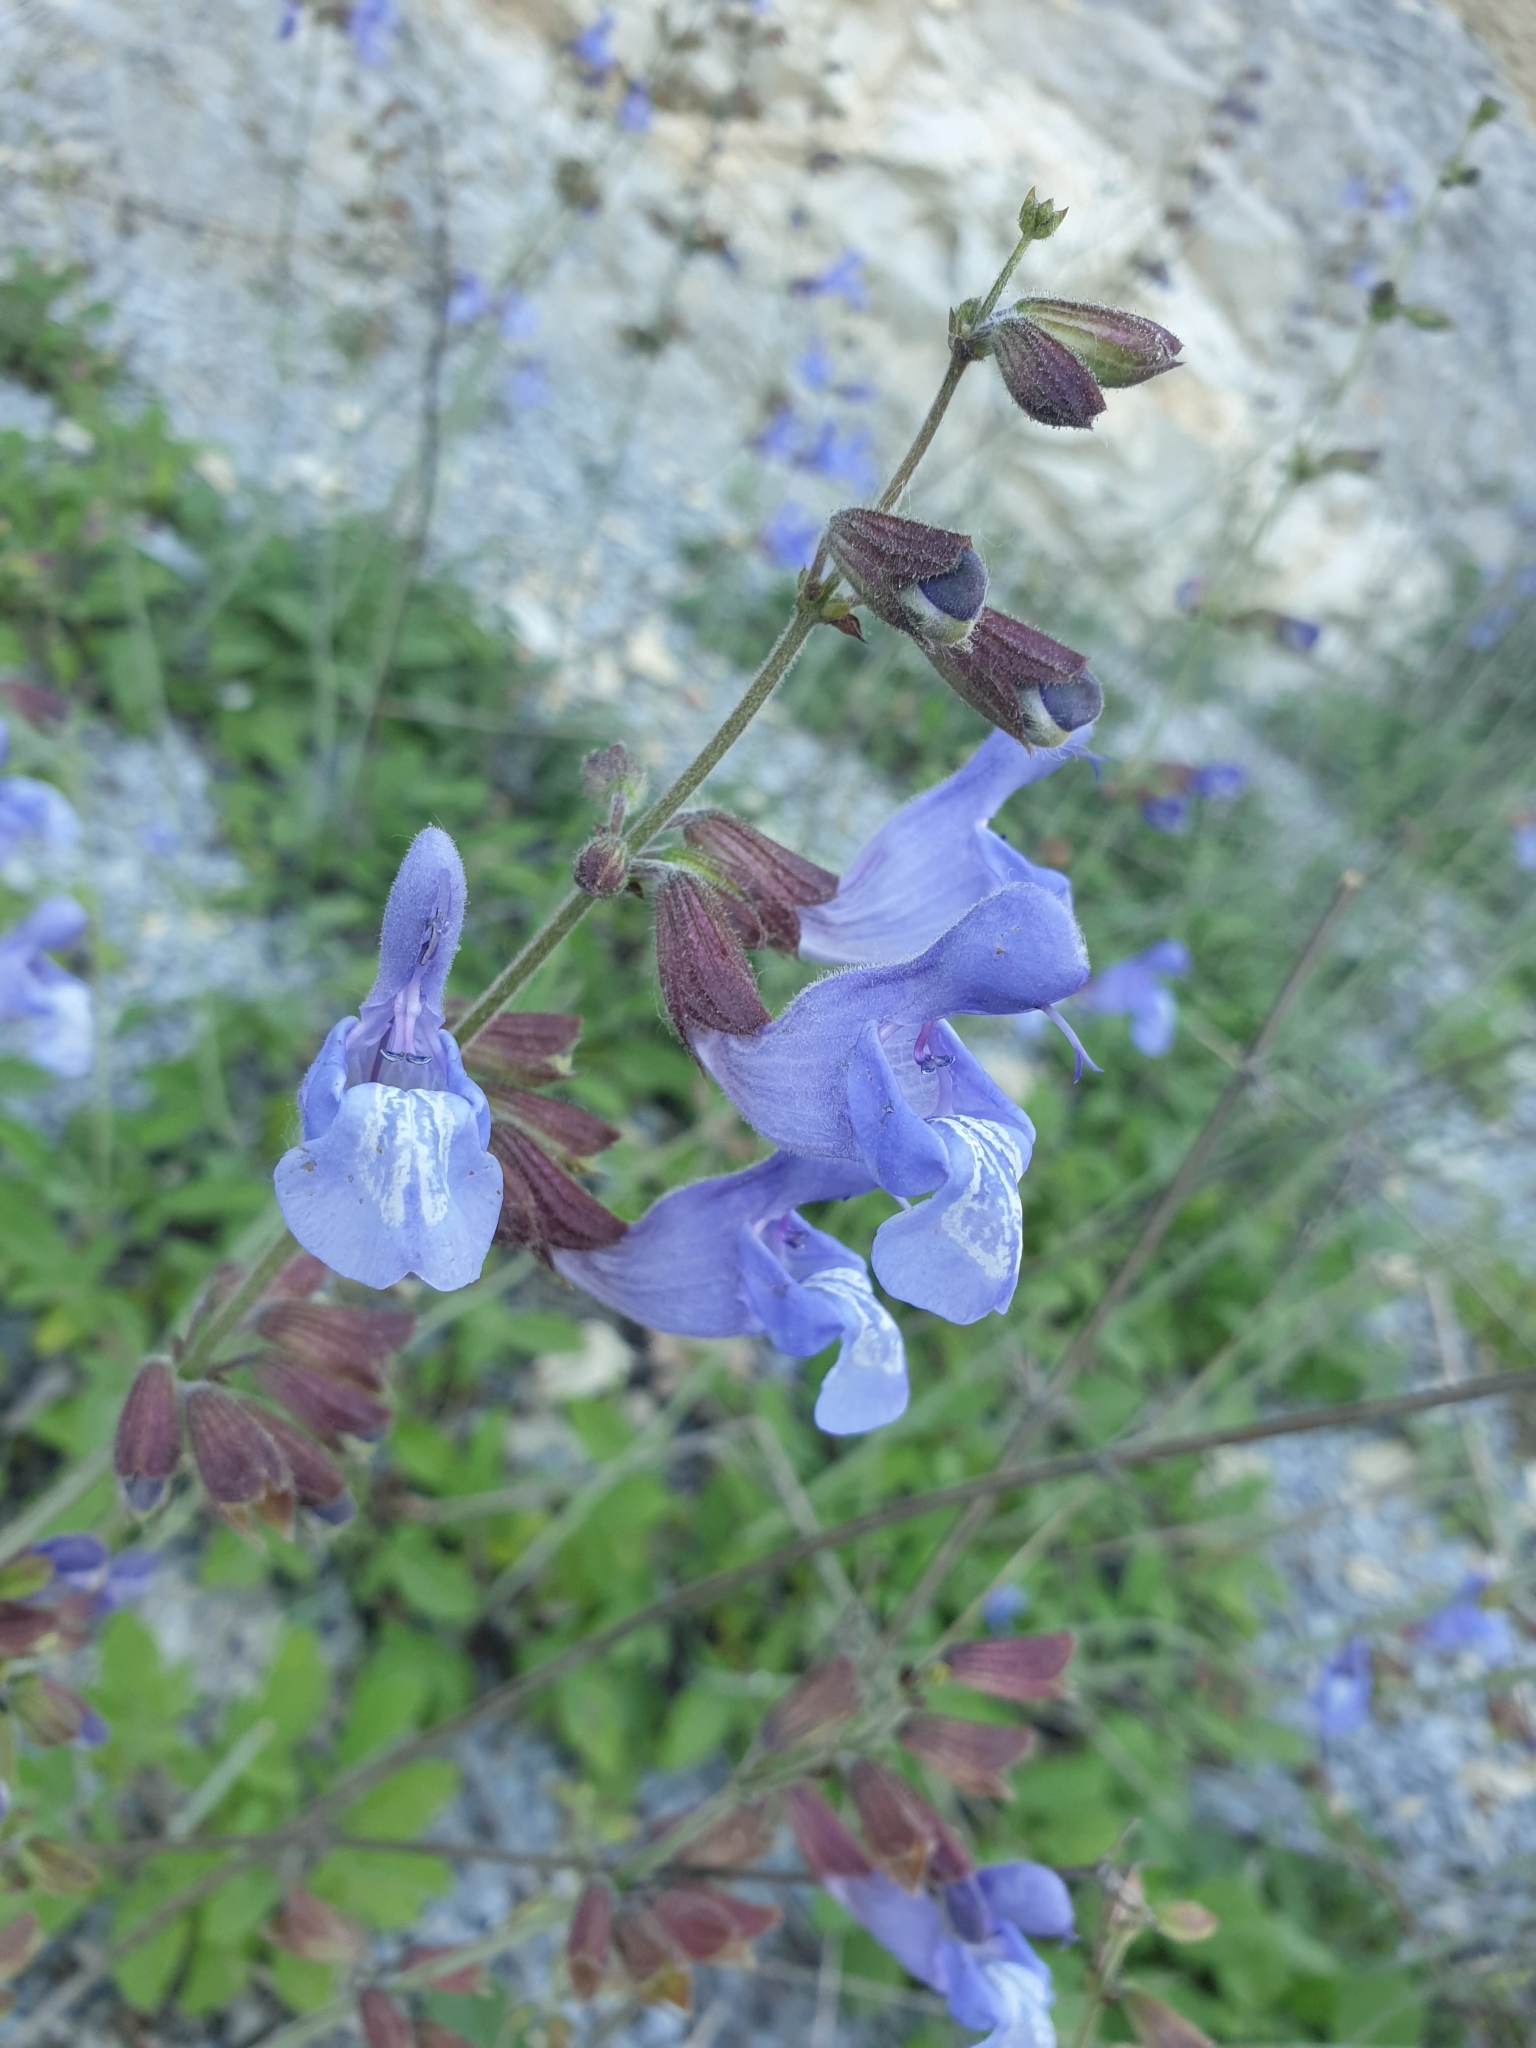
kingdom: Plantae
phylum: Tracheophyta
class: Magnoliopsida
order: Lamiales
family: Lamiaceae
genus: Salvia
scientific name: Salvia ringens
